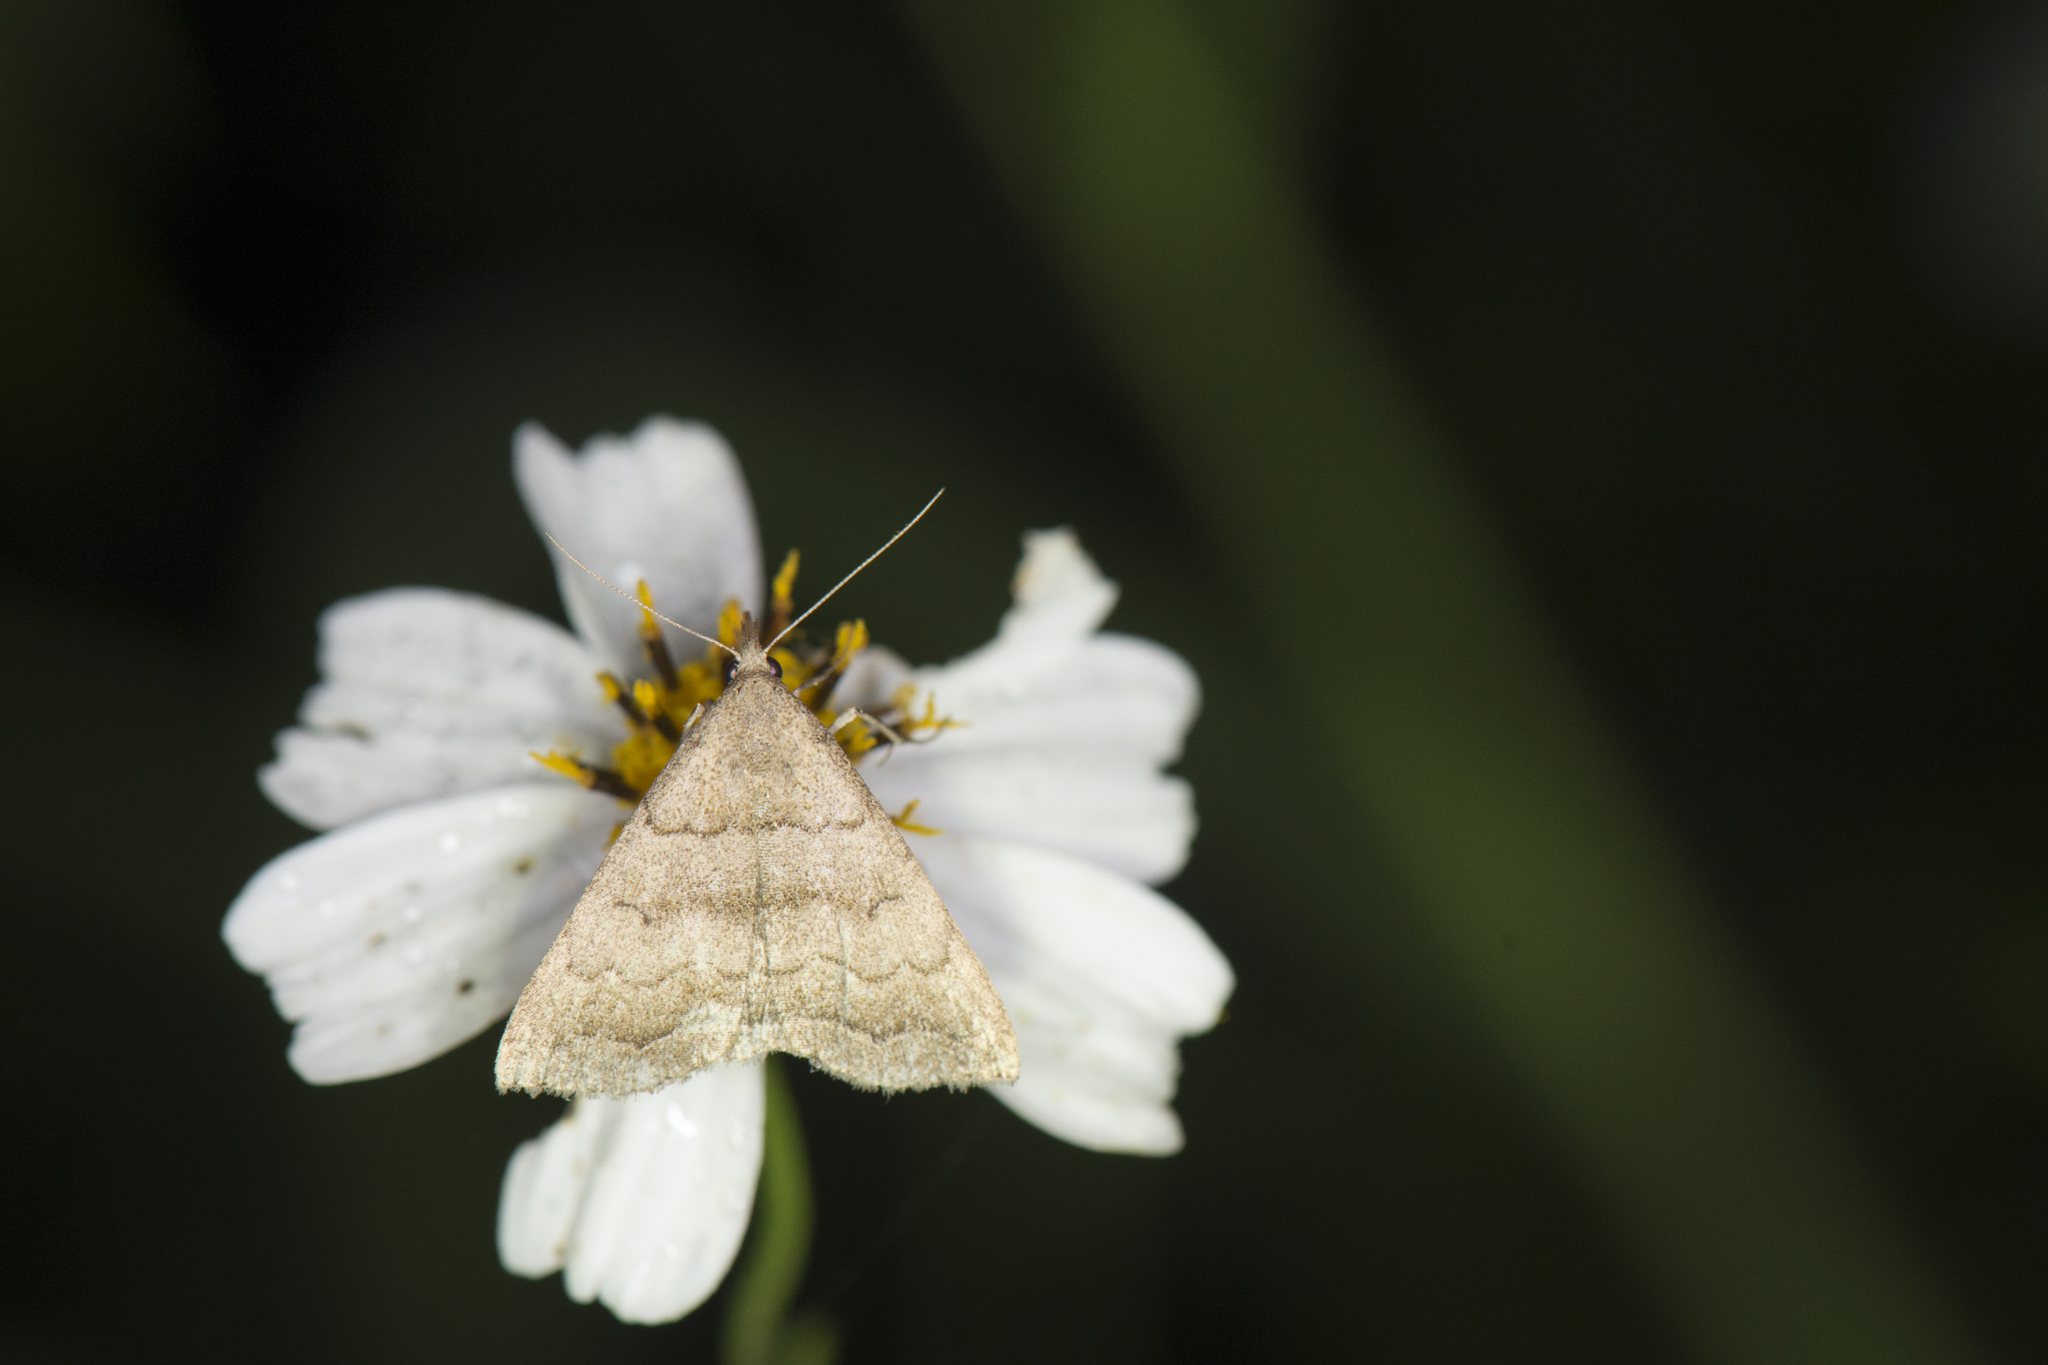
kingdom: Animalia
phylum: Arthropoda
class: Insecta
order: Lepidoptera
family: Erebidae
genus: Herminia
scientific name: Herminia vermiculata
